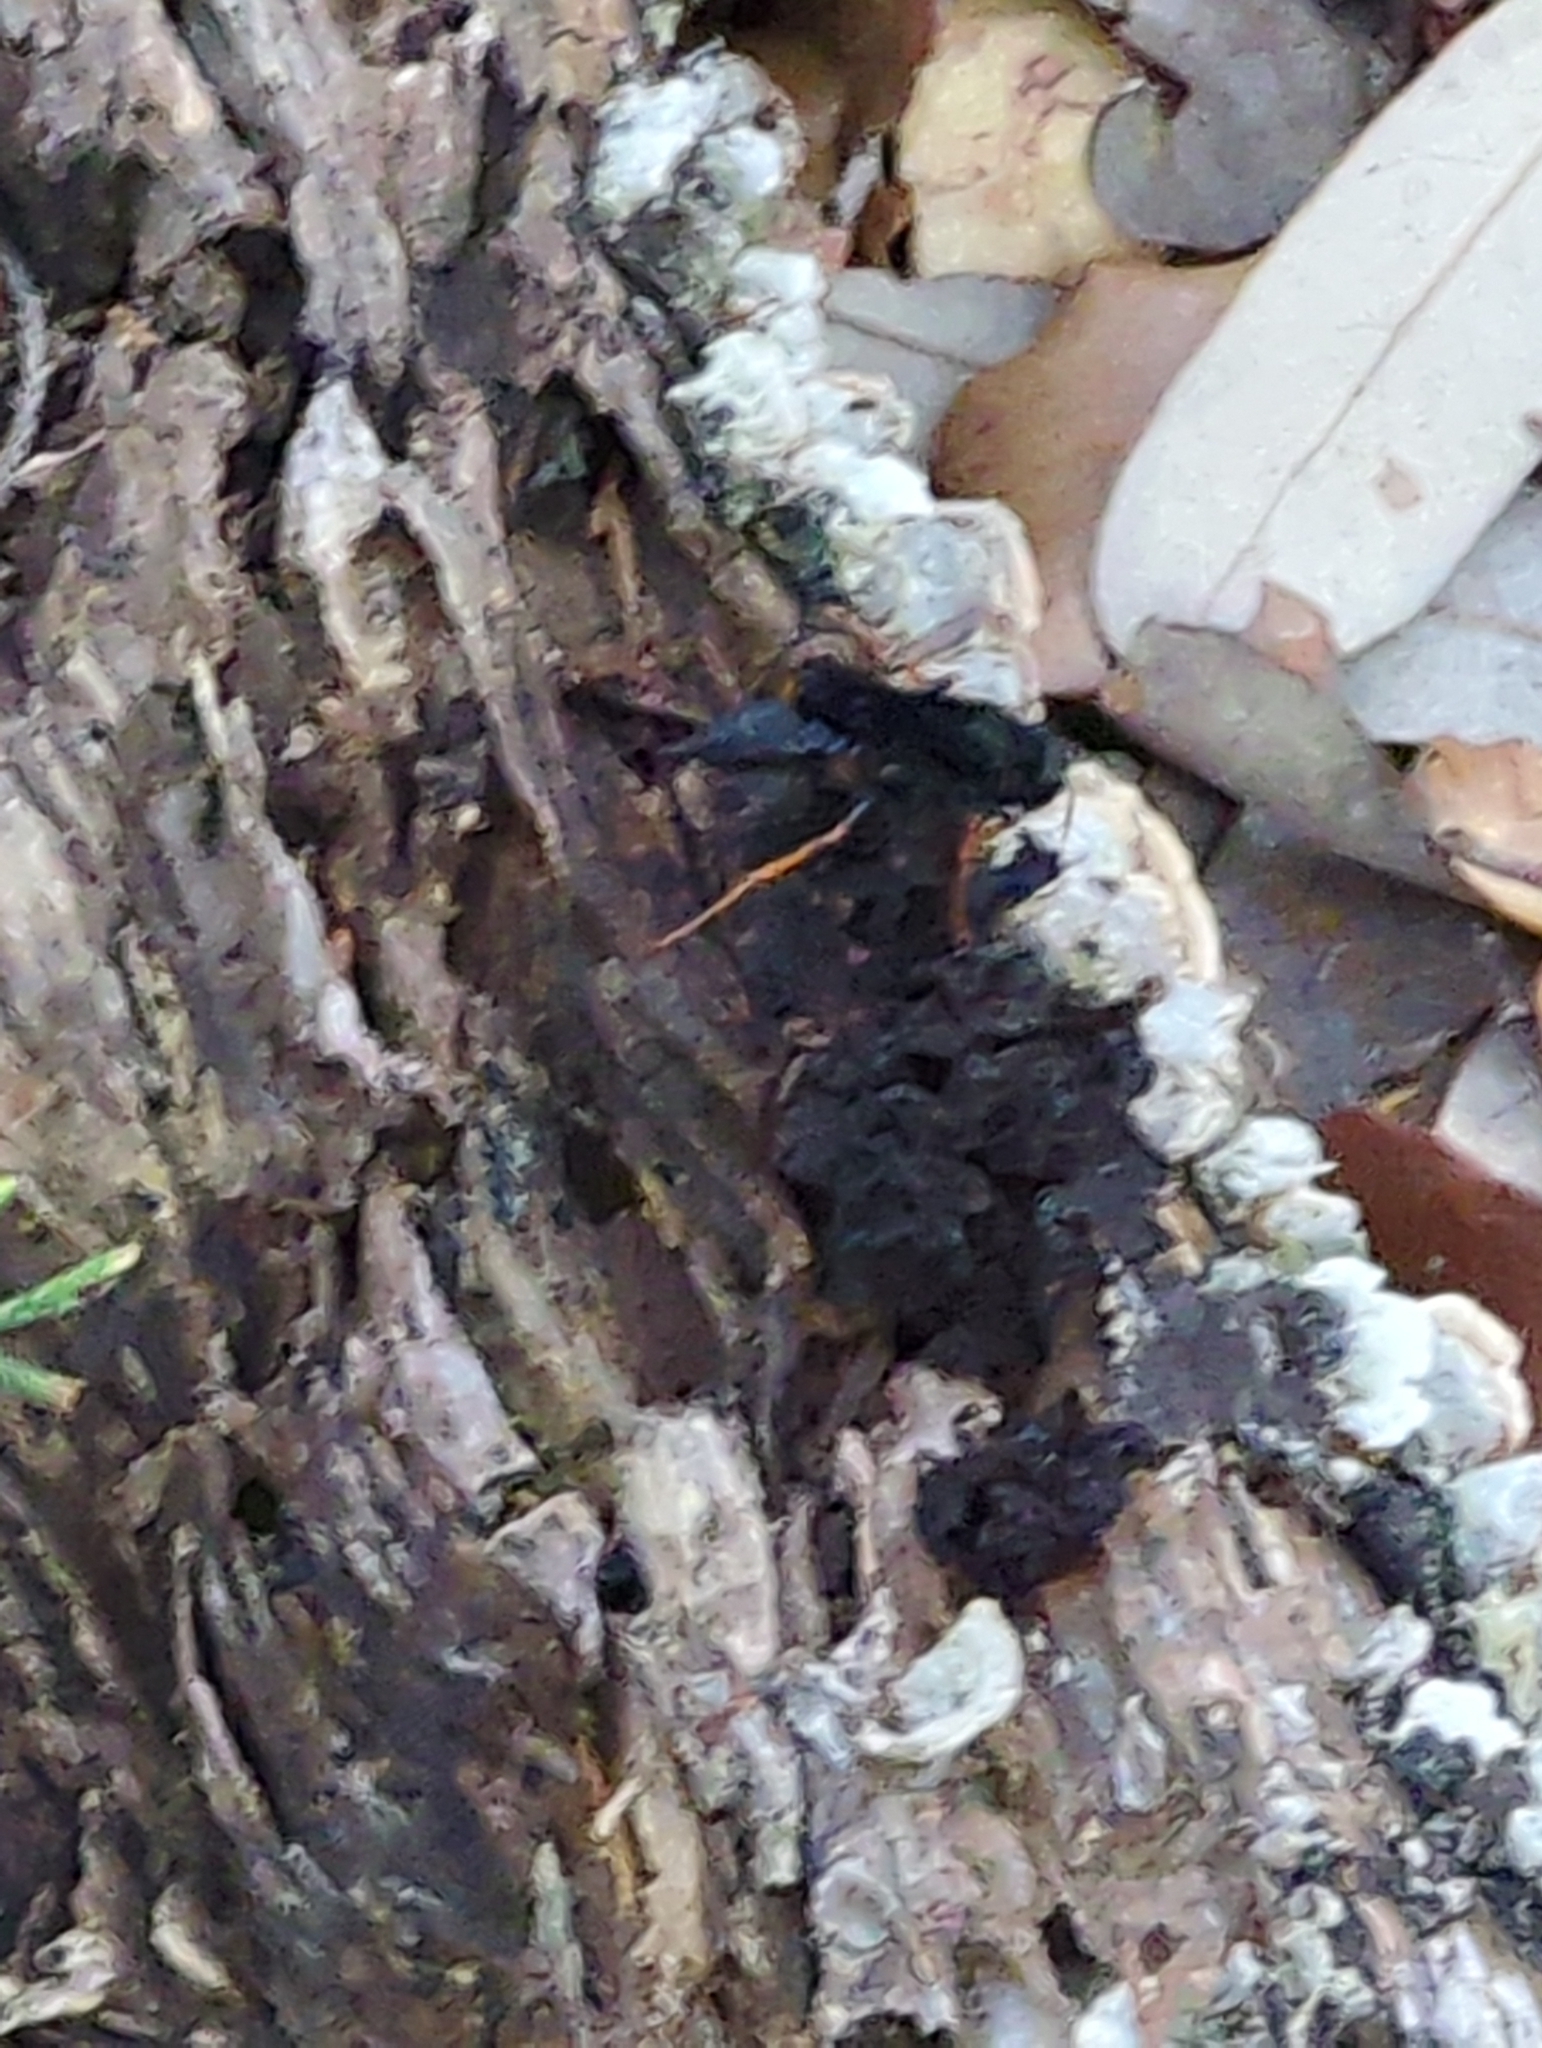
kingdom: Animalia
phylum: Arthropoda
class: Insecta
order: Hymenoptera
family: Sphecidae
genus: Podium
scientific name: Podium luctuosum
